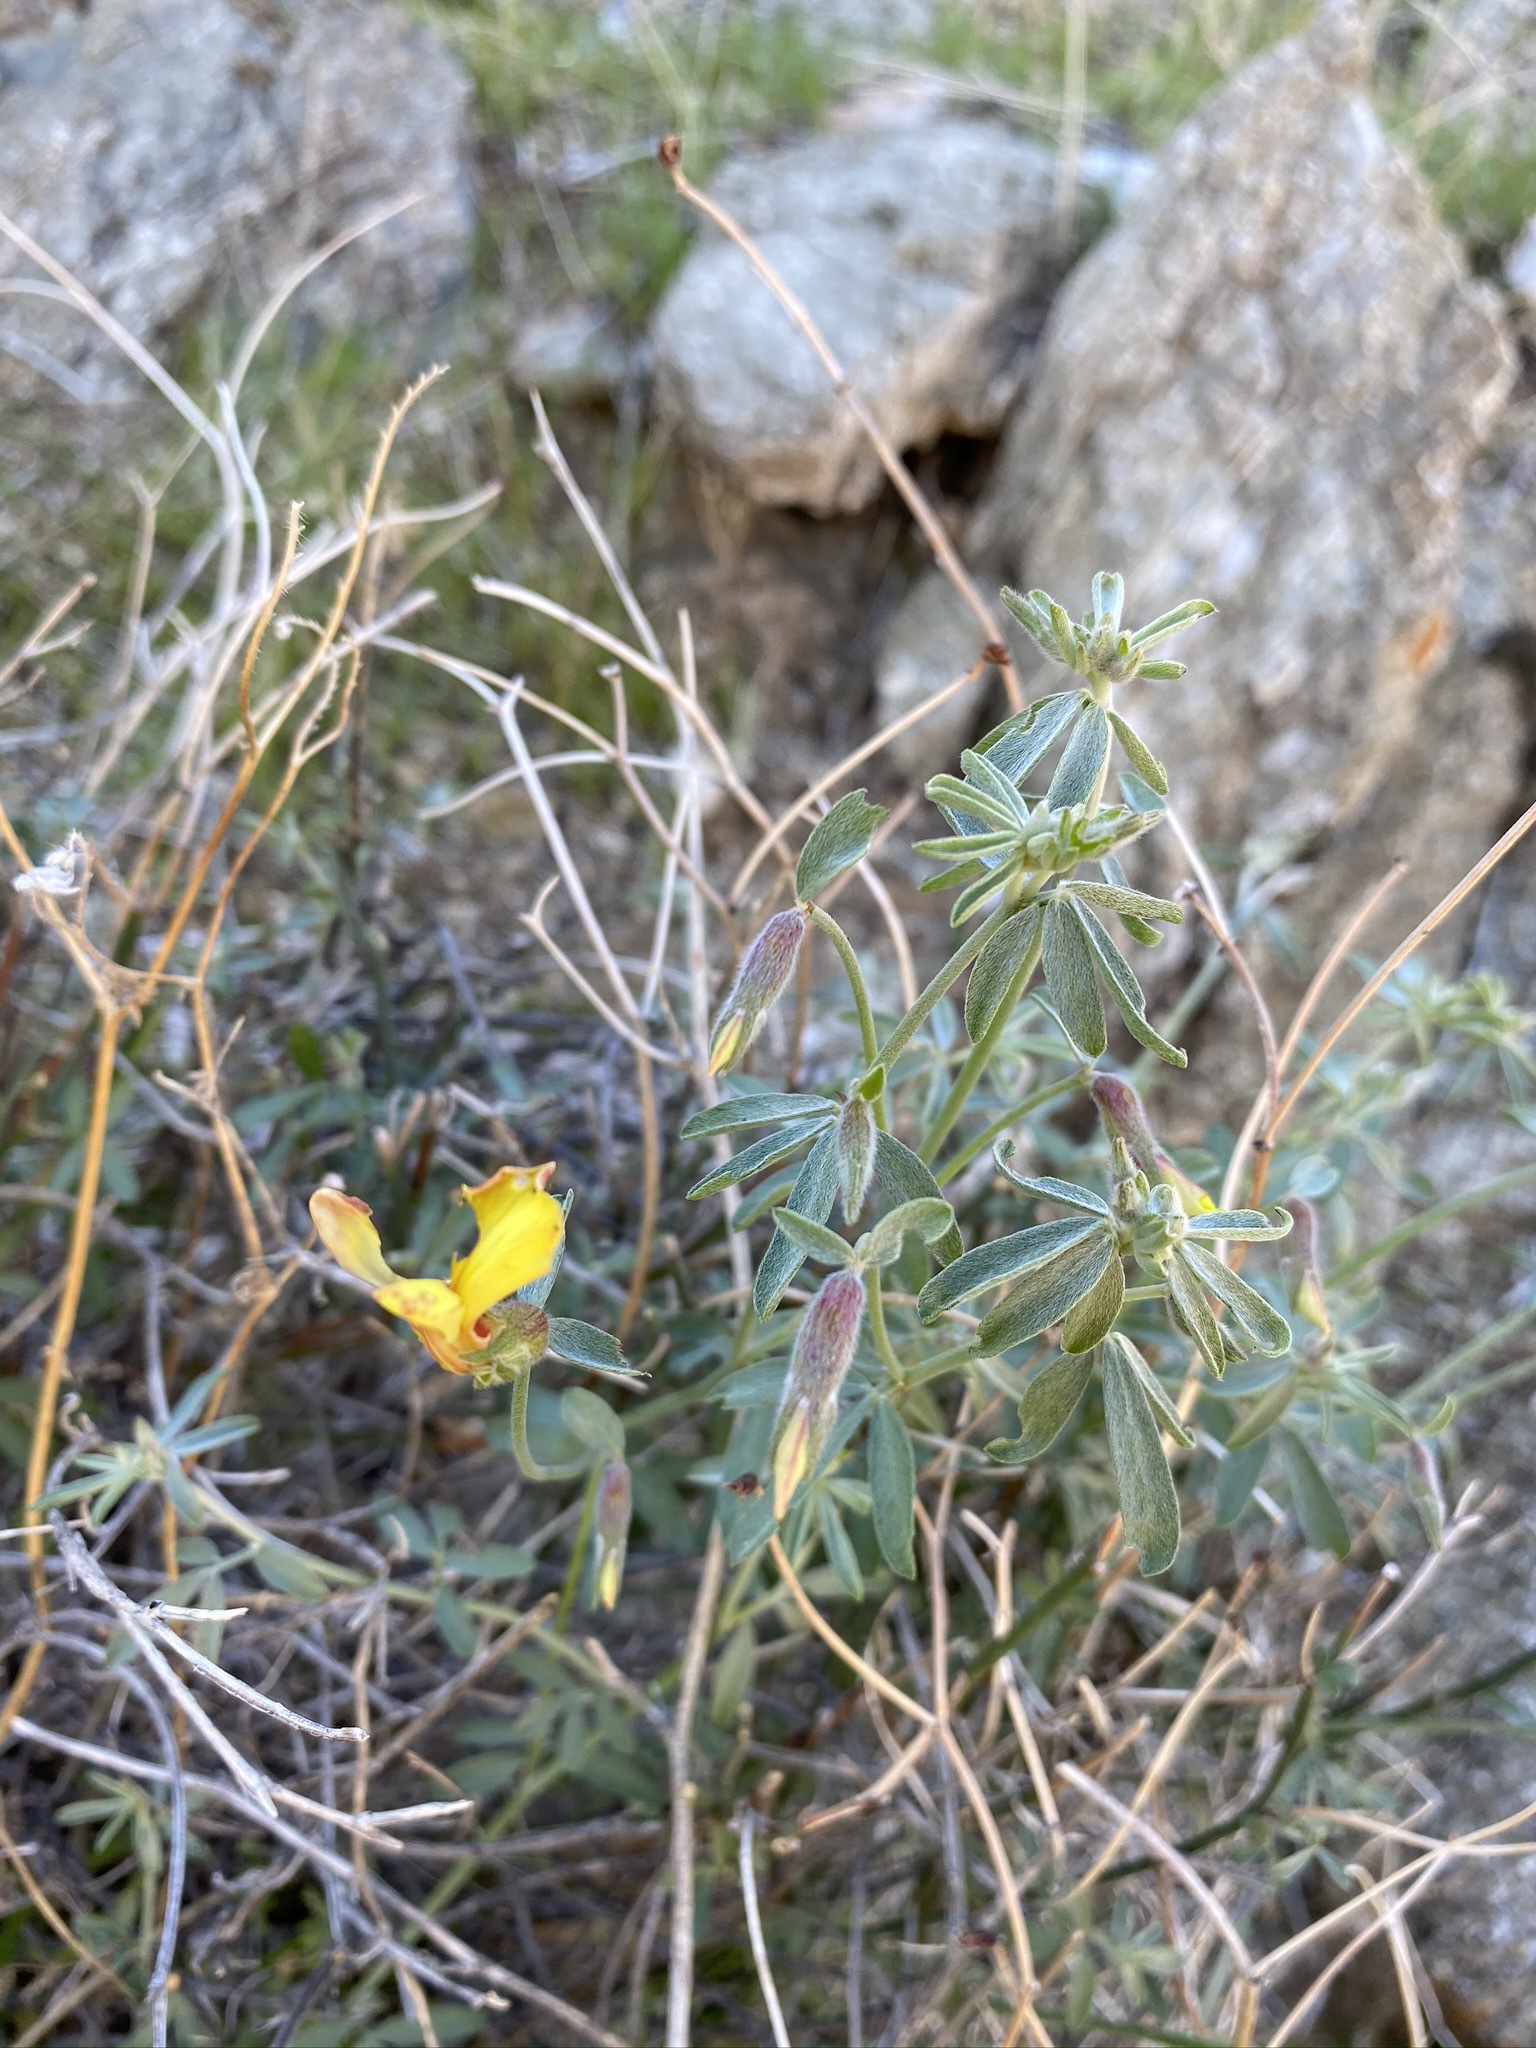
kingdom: Plantae
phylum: Tracheophyta
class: Magnoliopsida
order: Fabales
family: Fabaceae
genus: Acmispon
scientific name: Acmispon rigidus
